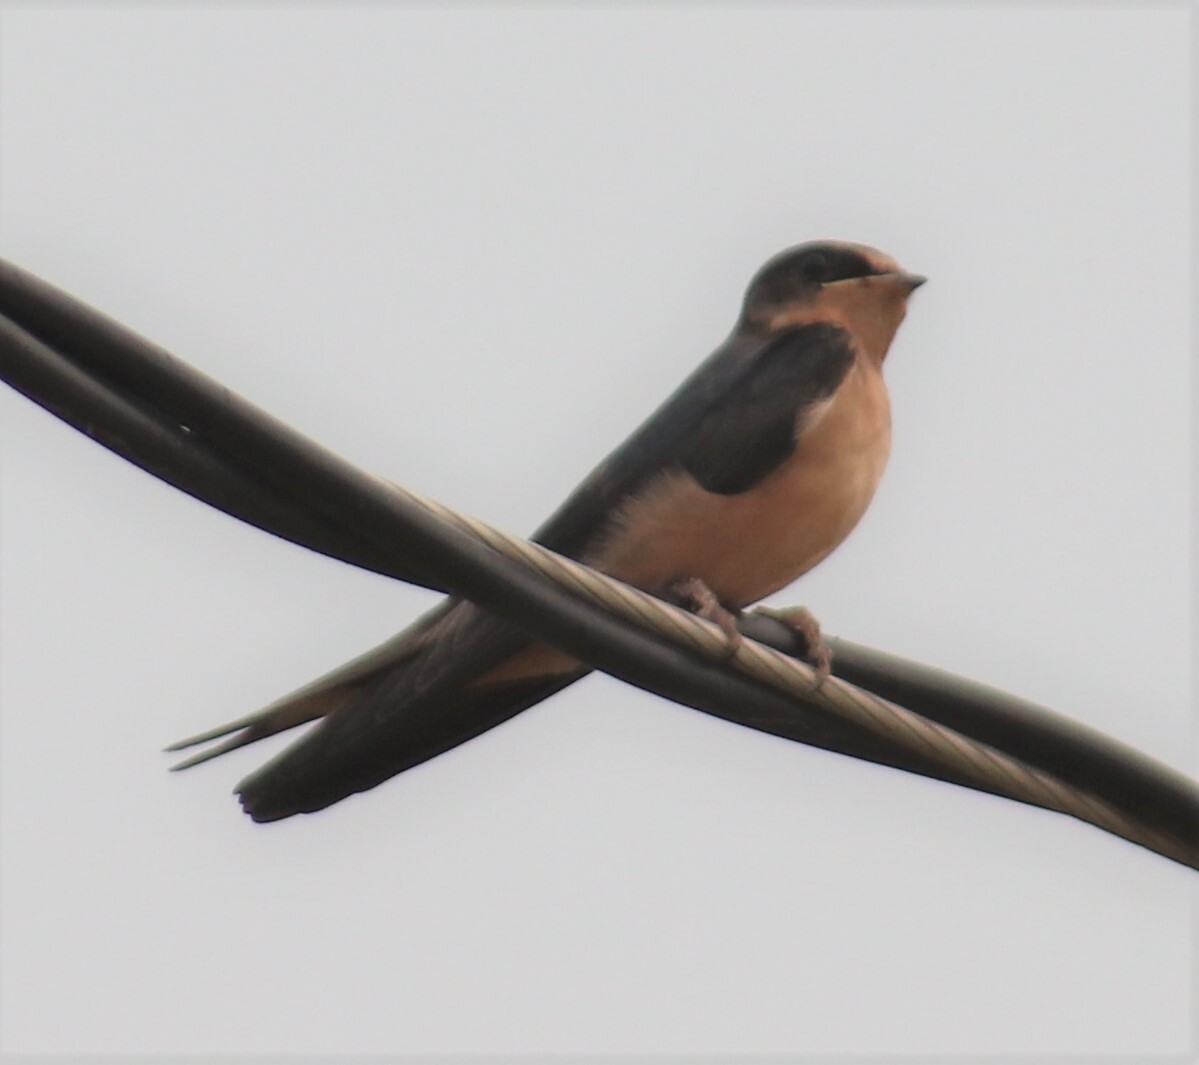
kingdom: Animalia
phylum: Chordata
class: Aves
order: Passeriformes
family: Hirundinidae
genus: Hirundo
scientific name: Hirundo rustica
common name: Barn swallow
